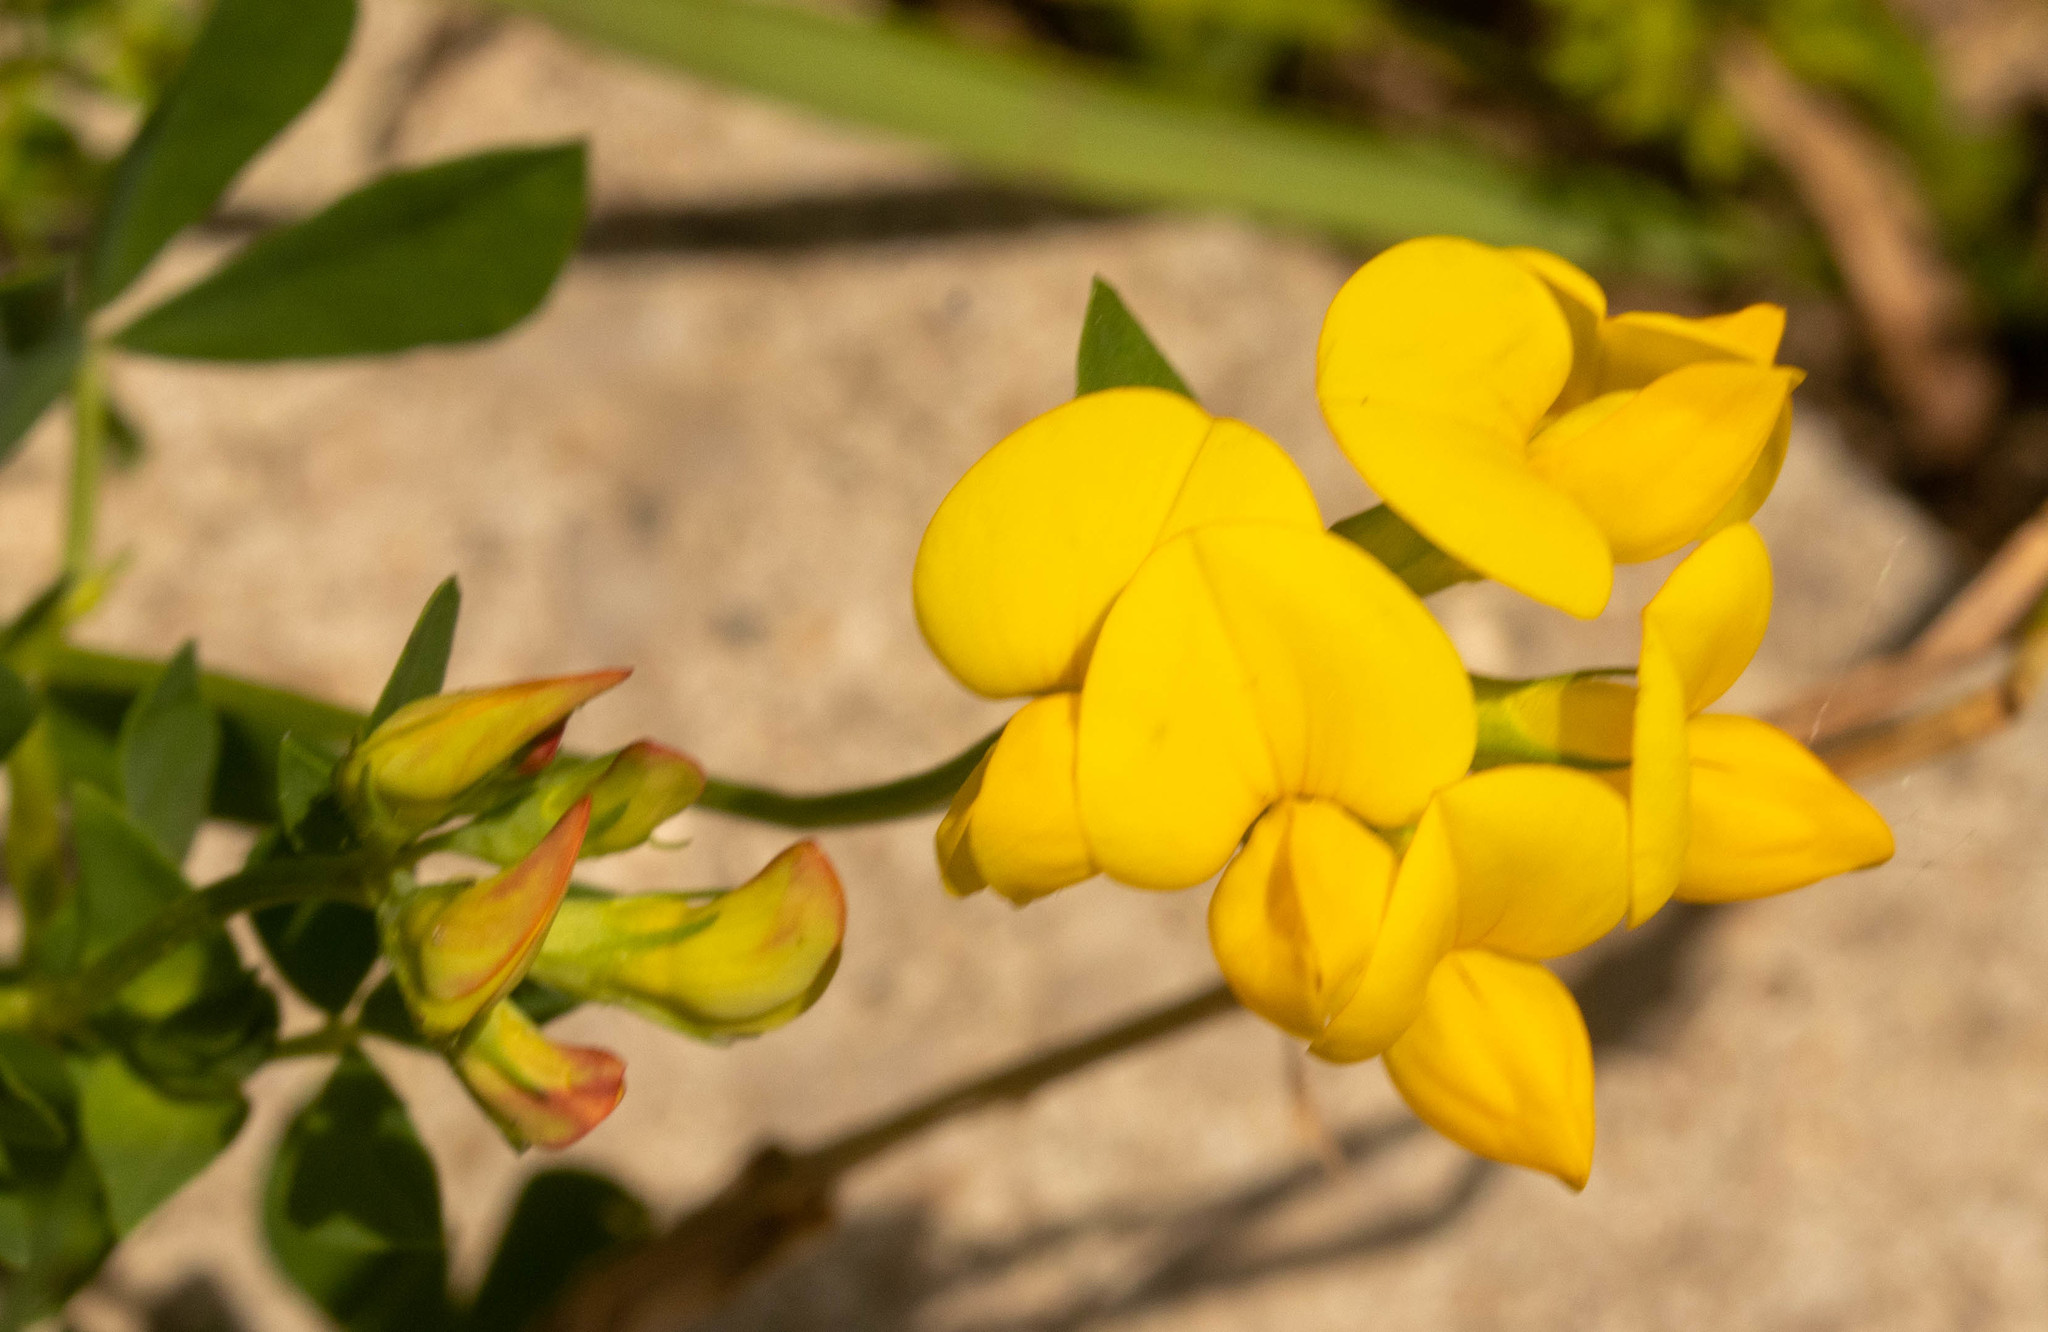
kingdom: Plantae
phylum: Tracheophyta
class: Magnoliopsida
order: Fabales
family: Fabaceae
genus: Lotus
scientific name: Lotus corniculatus
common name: Common bird's-foot-trefoil
